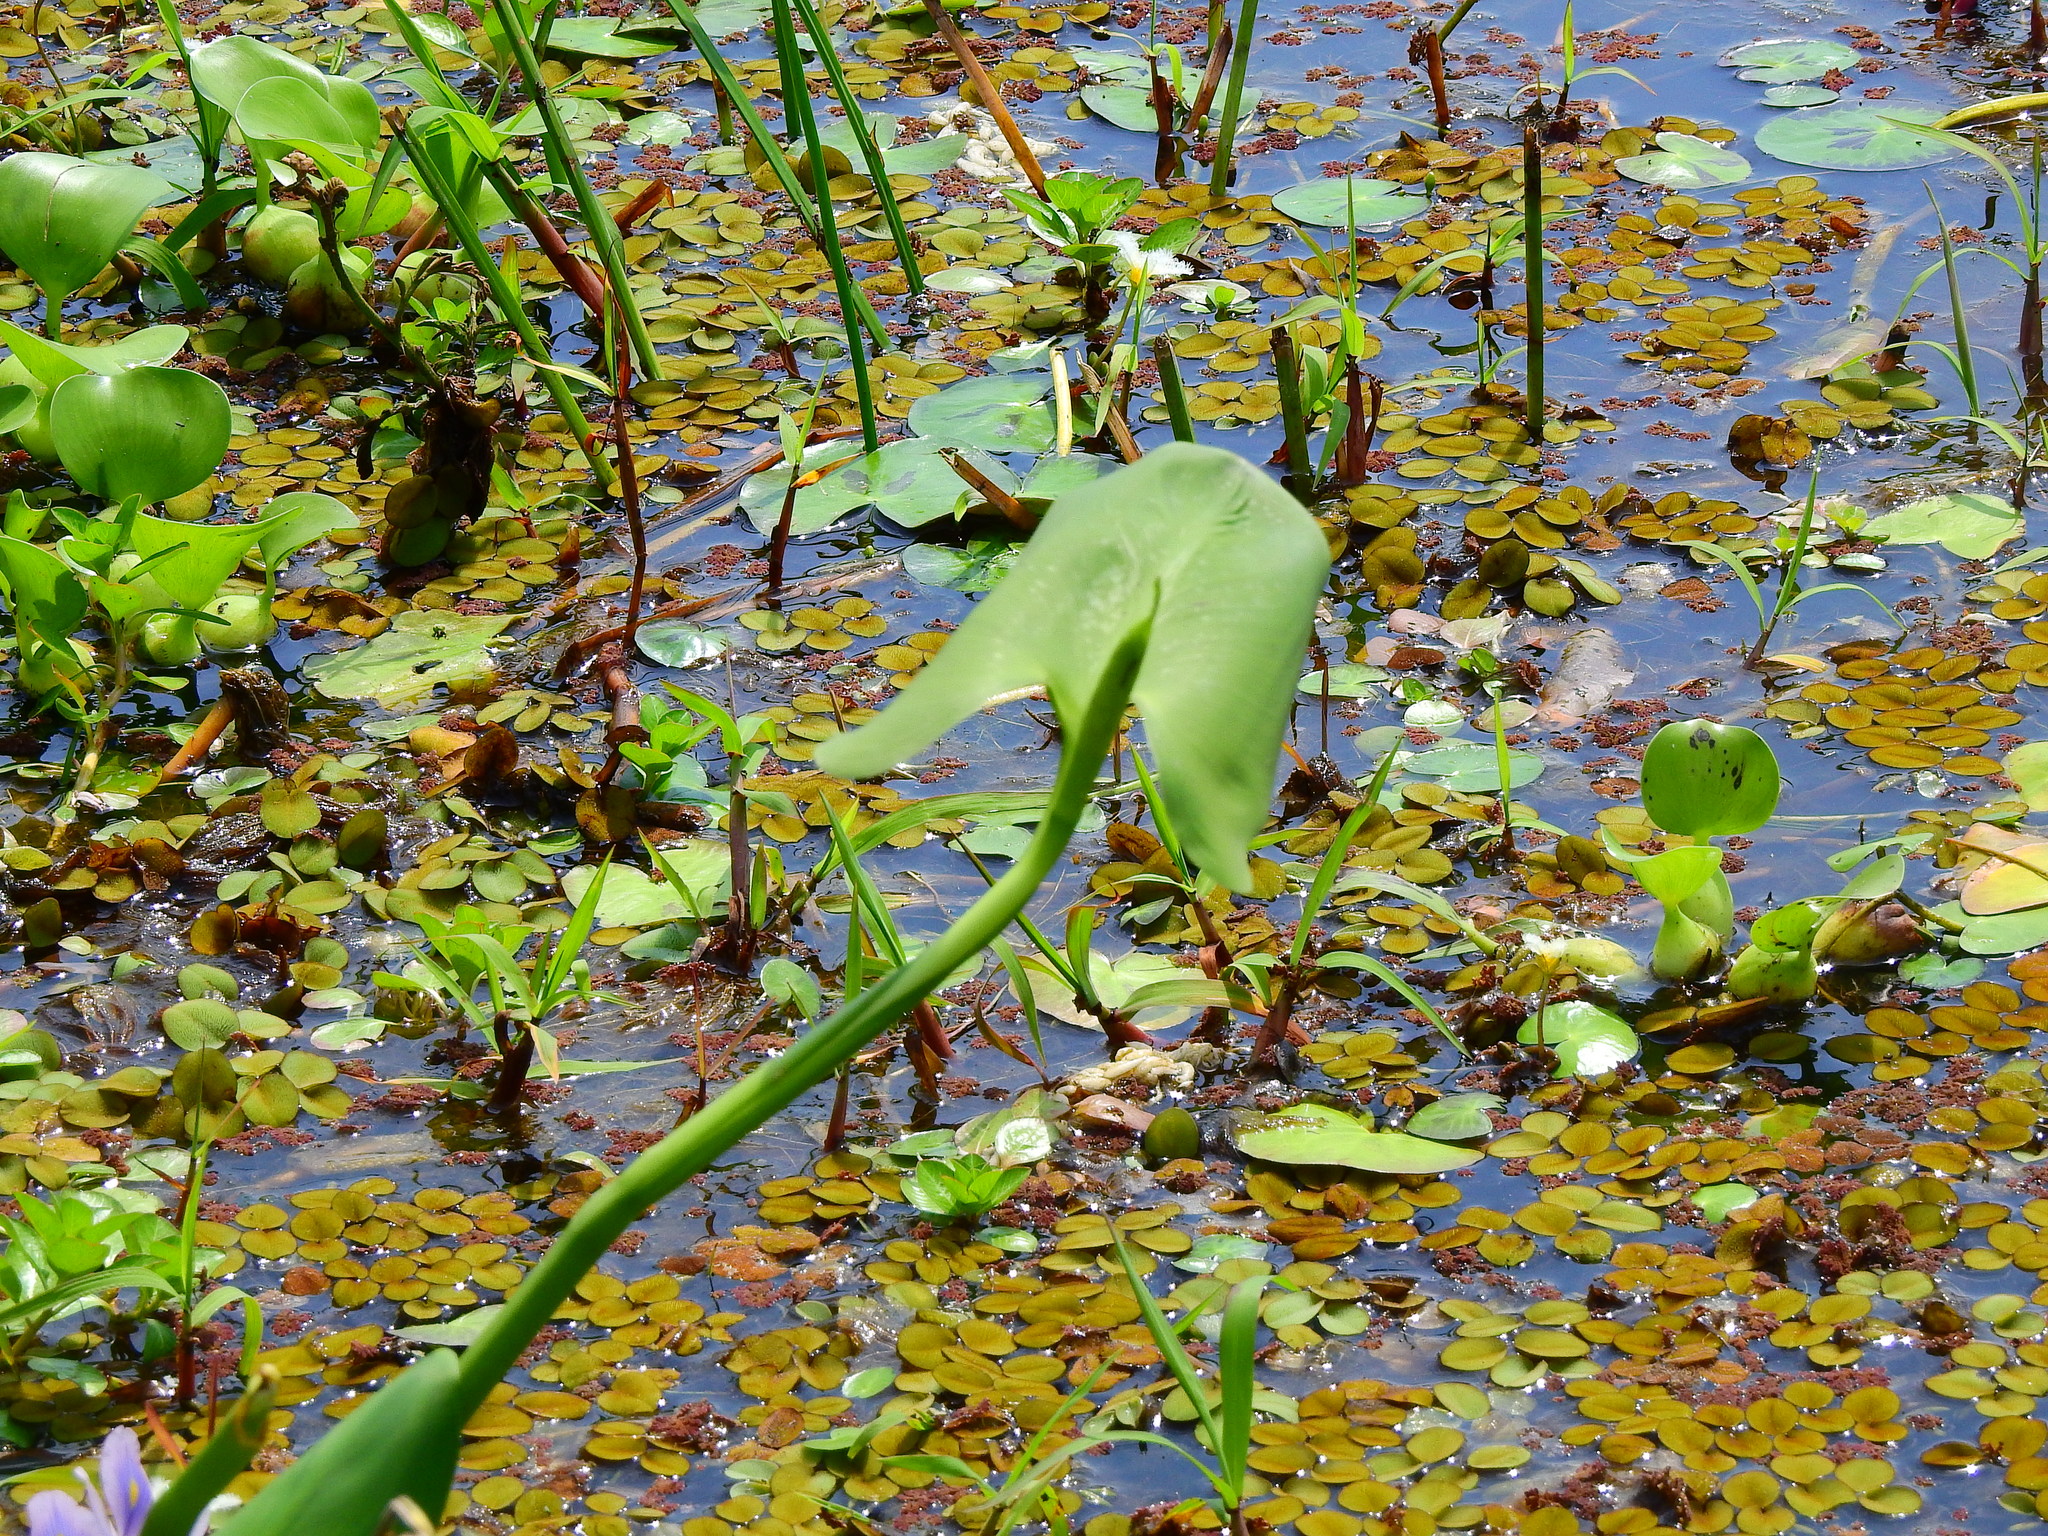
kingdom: Plantae
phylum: Tracheophyta
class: Liliopsida
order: Commelinales
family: Pontederiaceae
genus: Pontederia
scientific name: Pontederia cordata
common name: Pickerelweed
